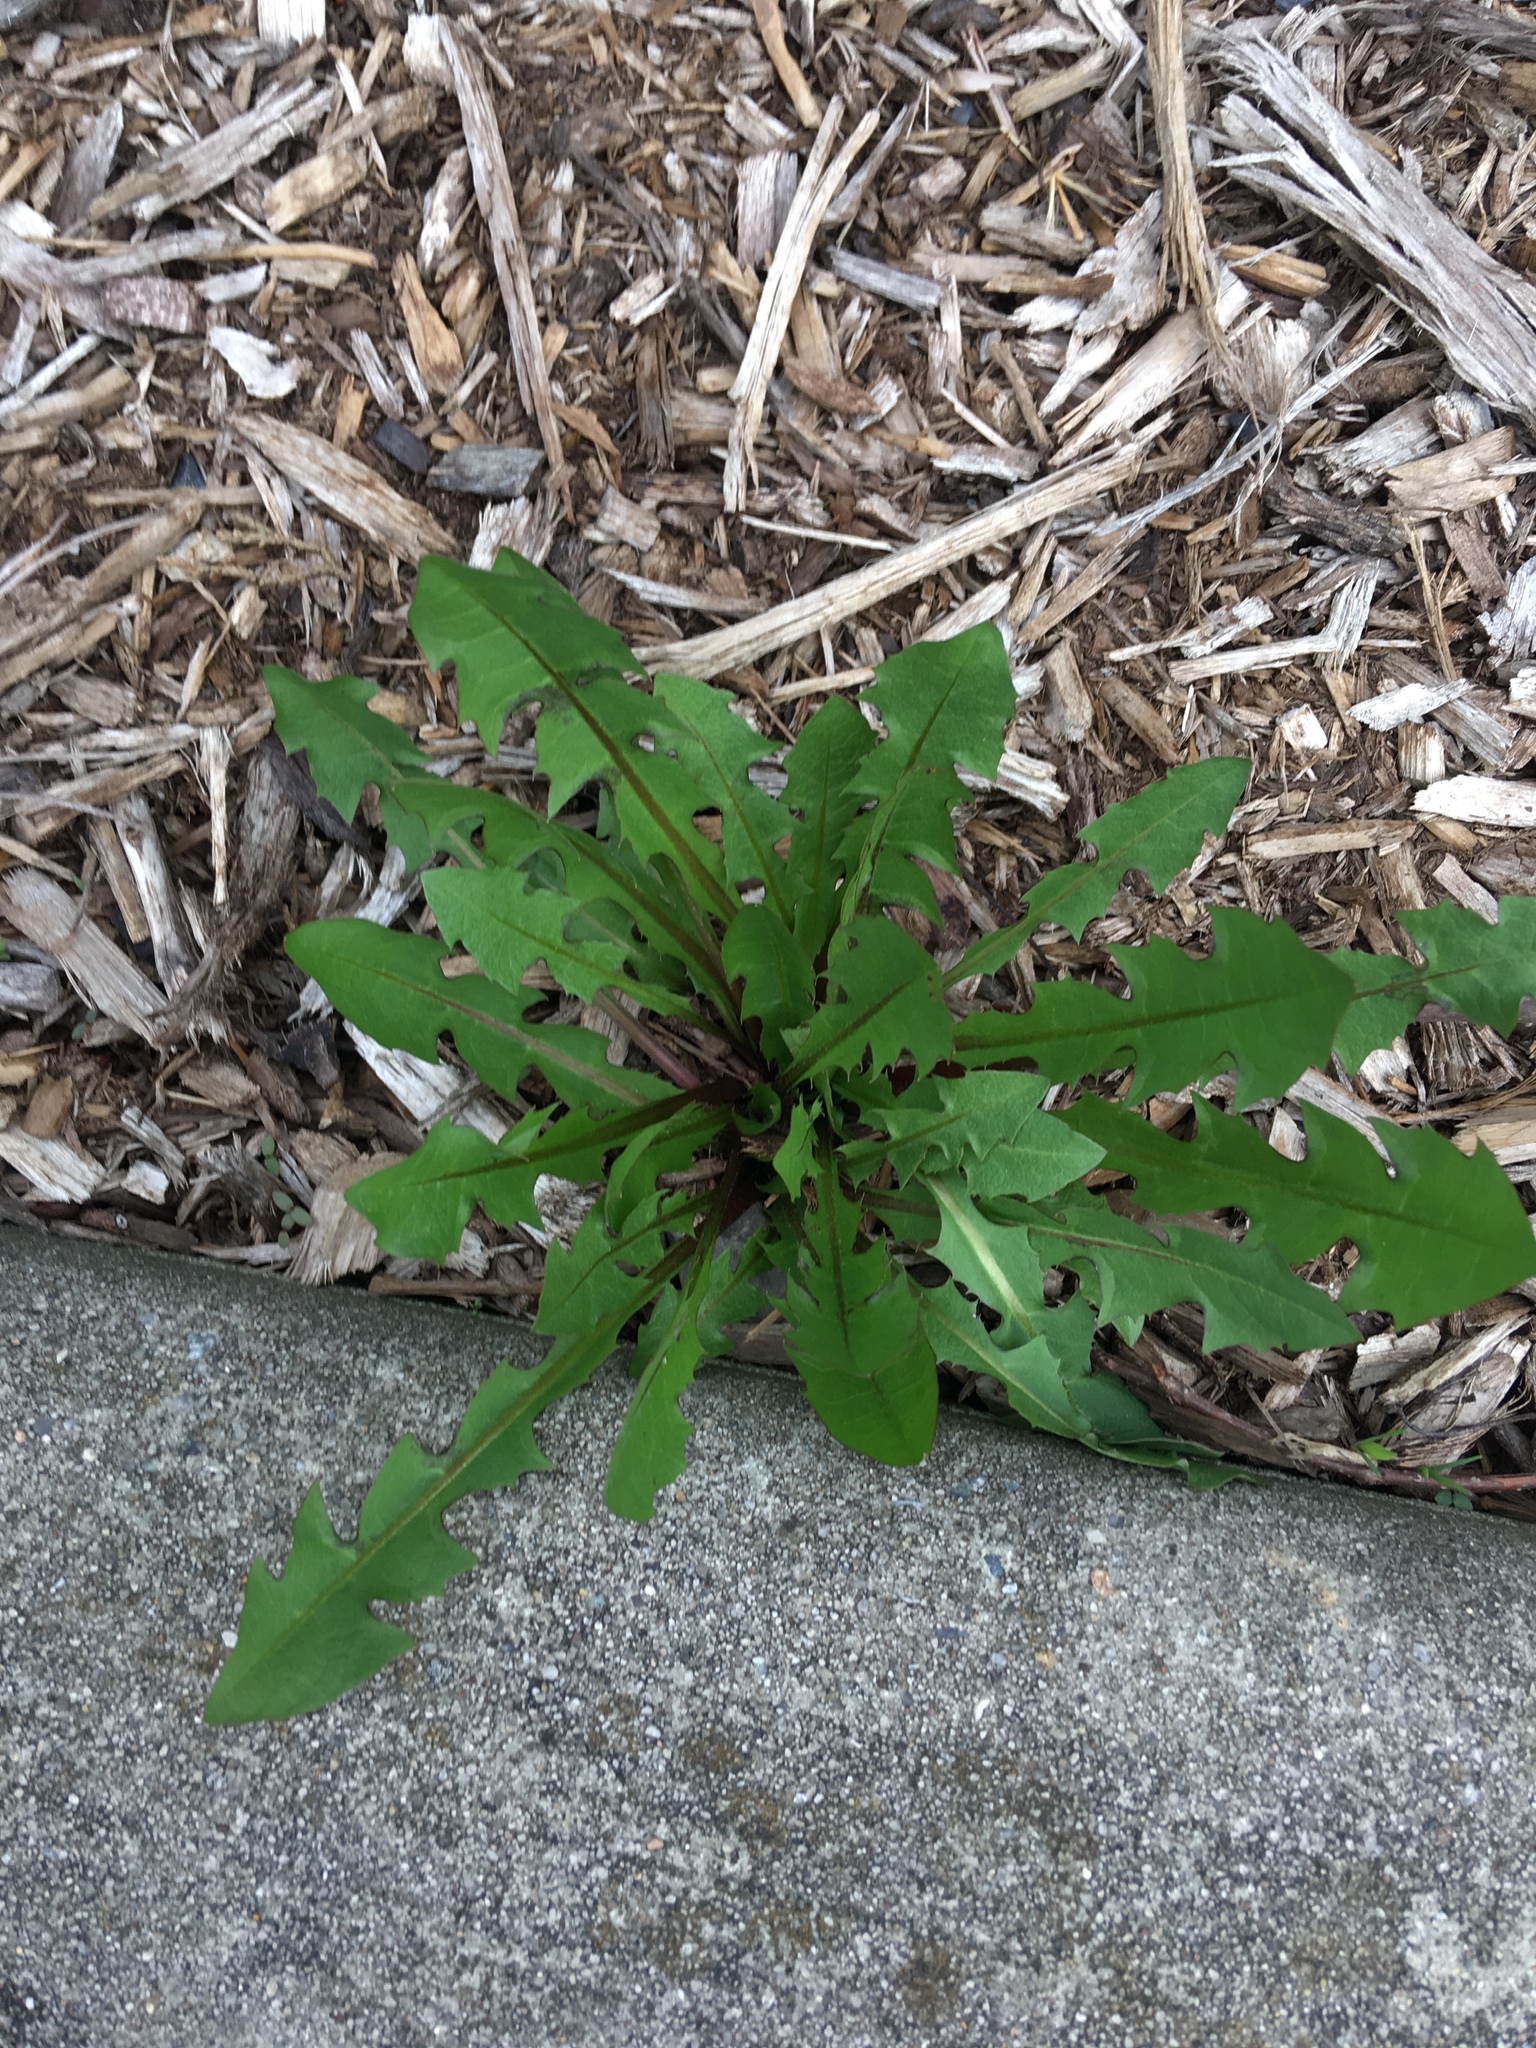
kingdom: Plantae
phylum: Tracheophyta
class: Magnoliopsida
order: Asterales
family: Asteraceae
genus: Taraxacum
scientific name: Taraxacum officinale
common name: Common dandelion
